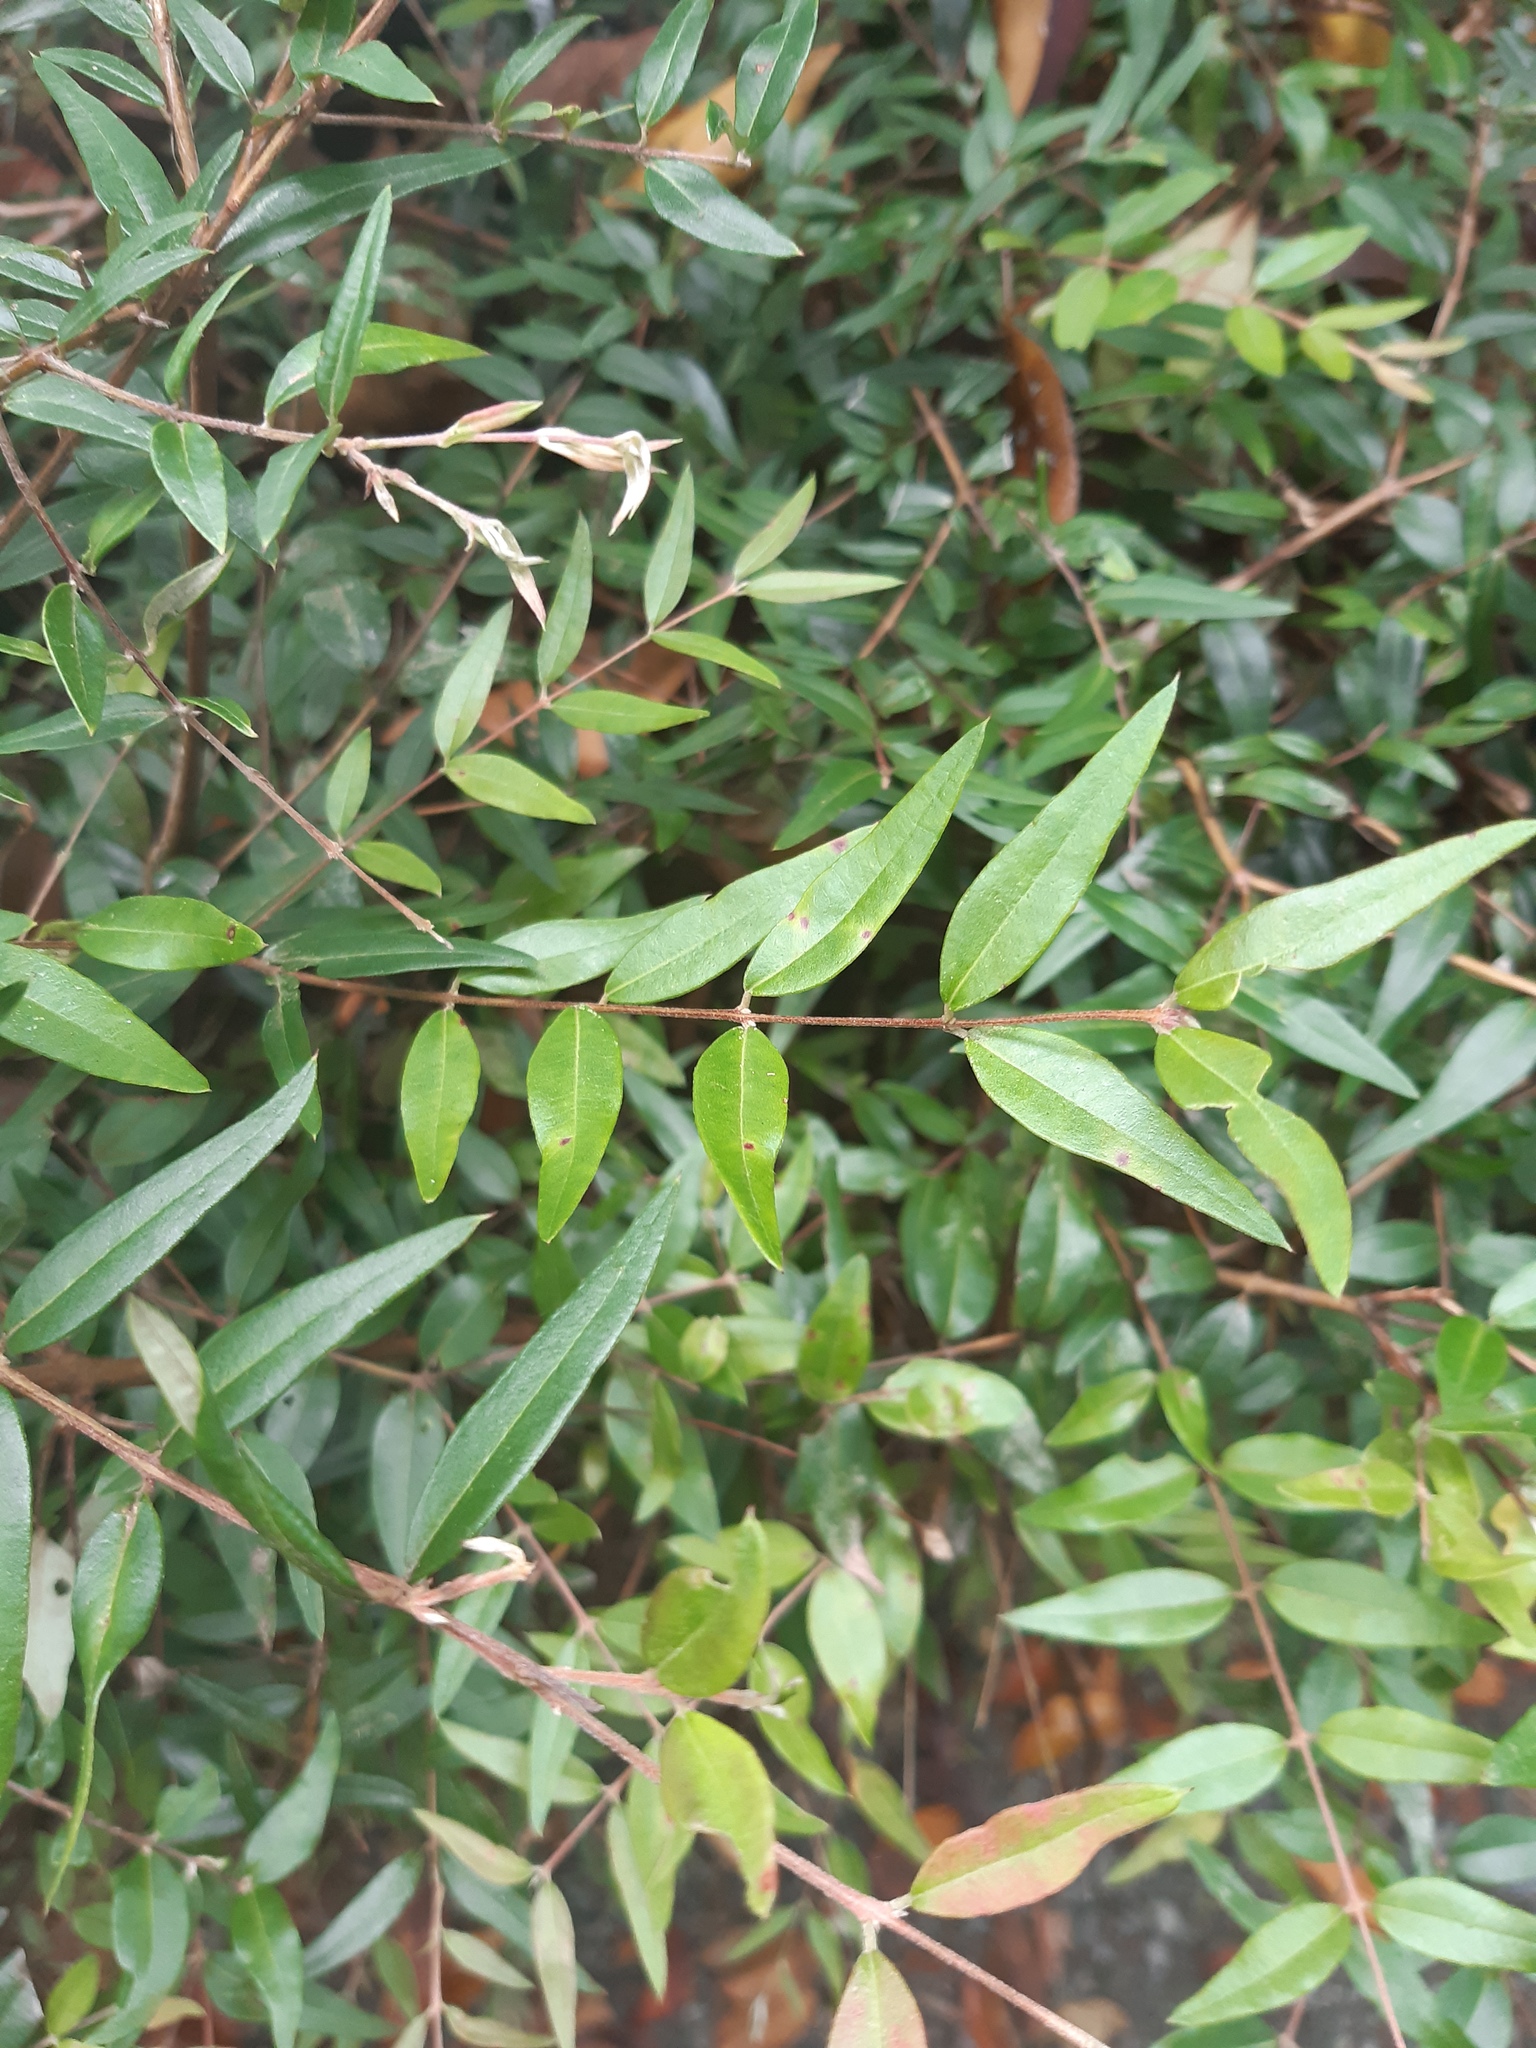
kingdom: Fungi
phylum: Basidiomycota
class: Pucciniomycetes
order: Pucciniales
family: Sphaerophragmiaceae
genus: Austropuccinia
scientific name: Austropuccinia psidii
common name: Myrtle rust
